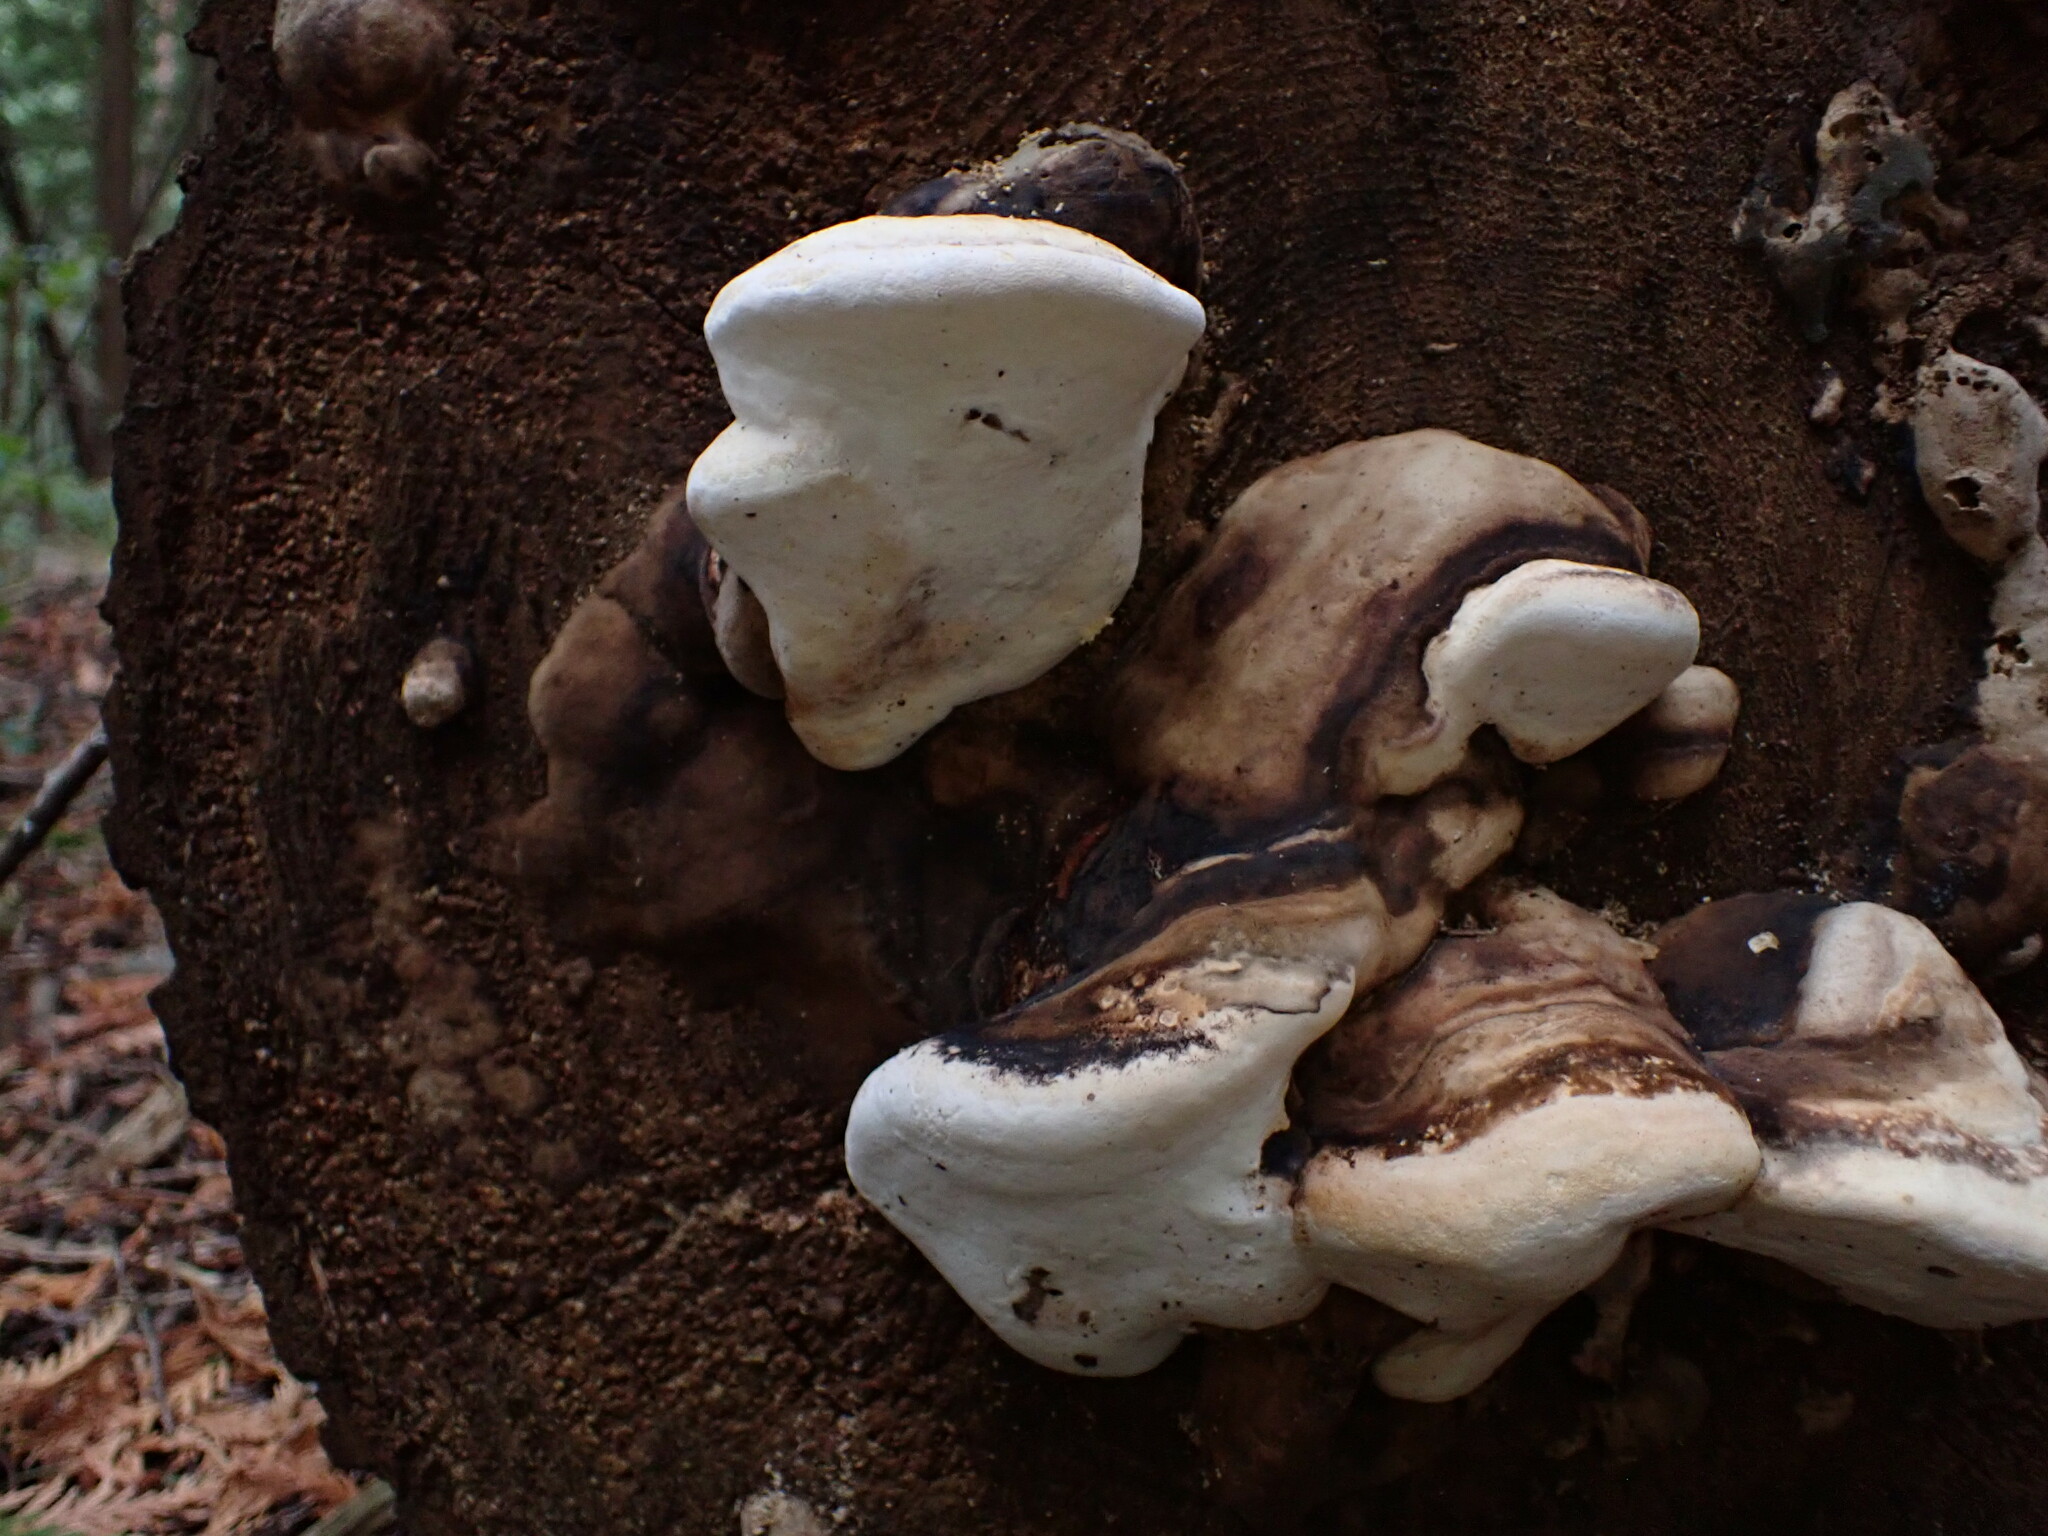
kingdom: Fungi
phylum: Basidiomycota
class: Agaricomycetes
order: Polyporales
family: Fomitopsidaceae
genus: Fomitopsis
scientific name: Fomitopsis ochracea
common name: American brown fomitopsis
